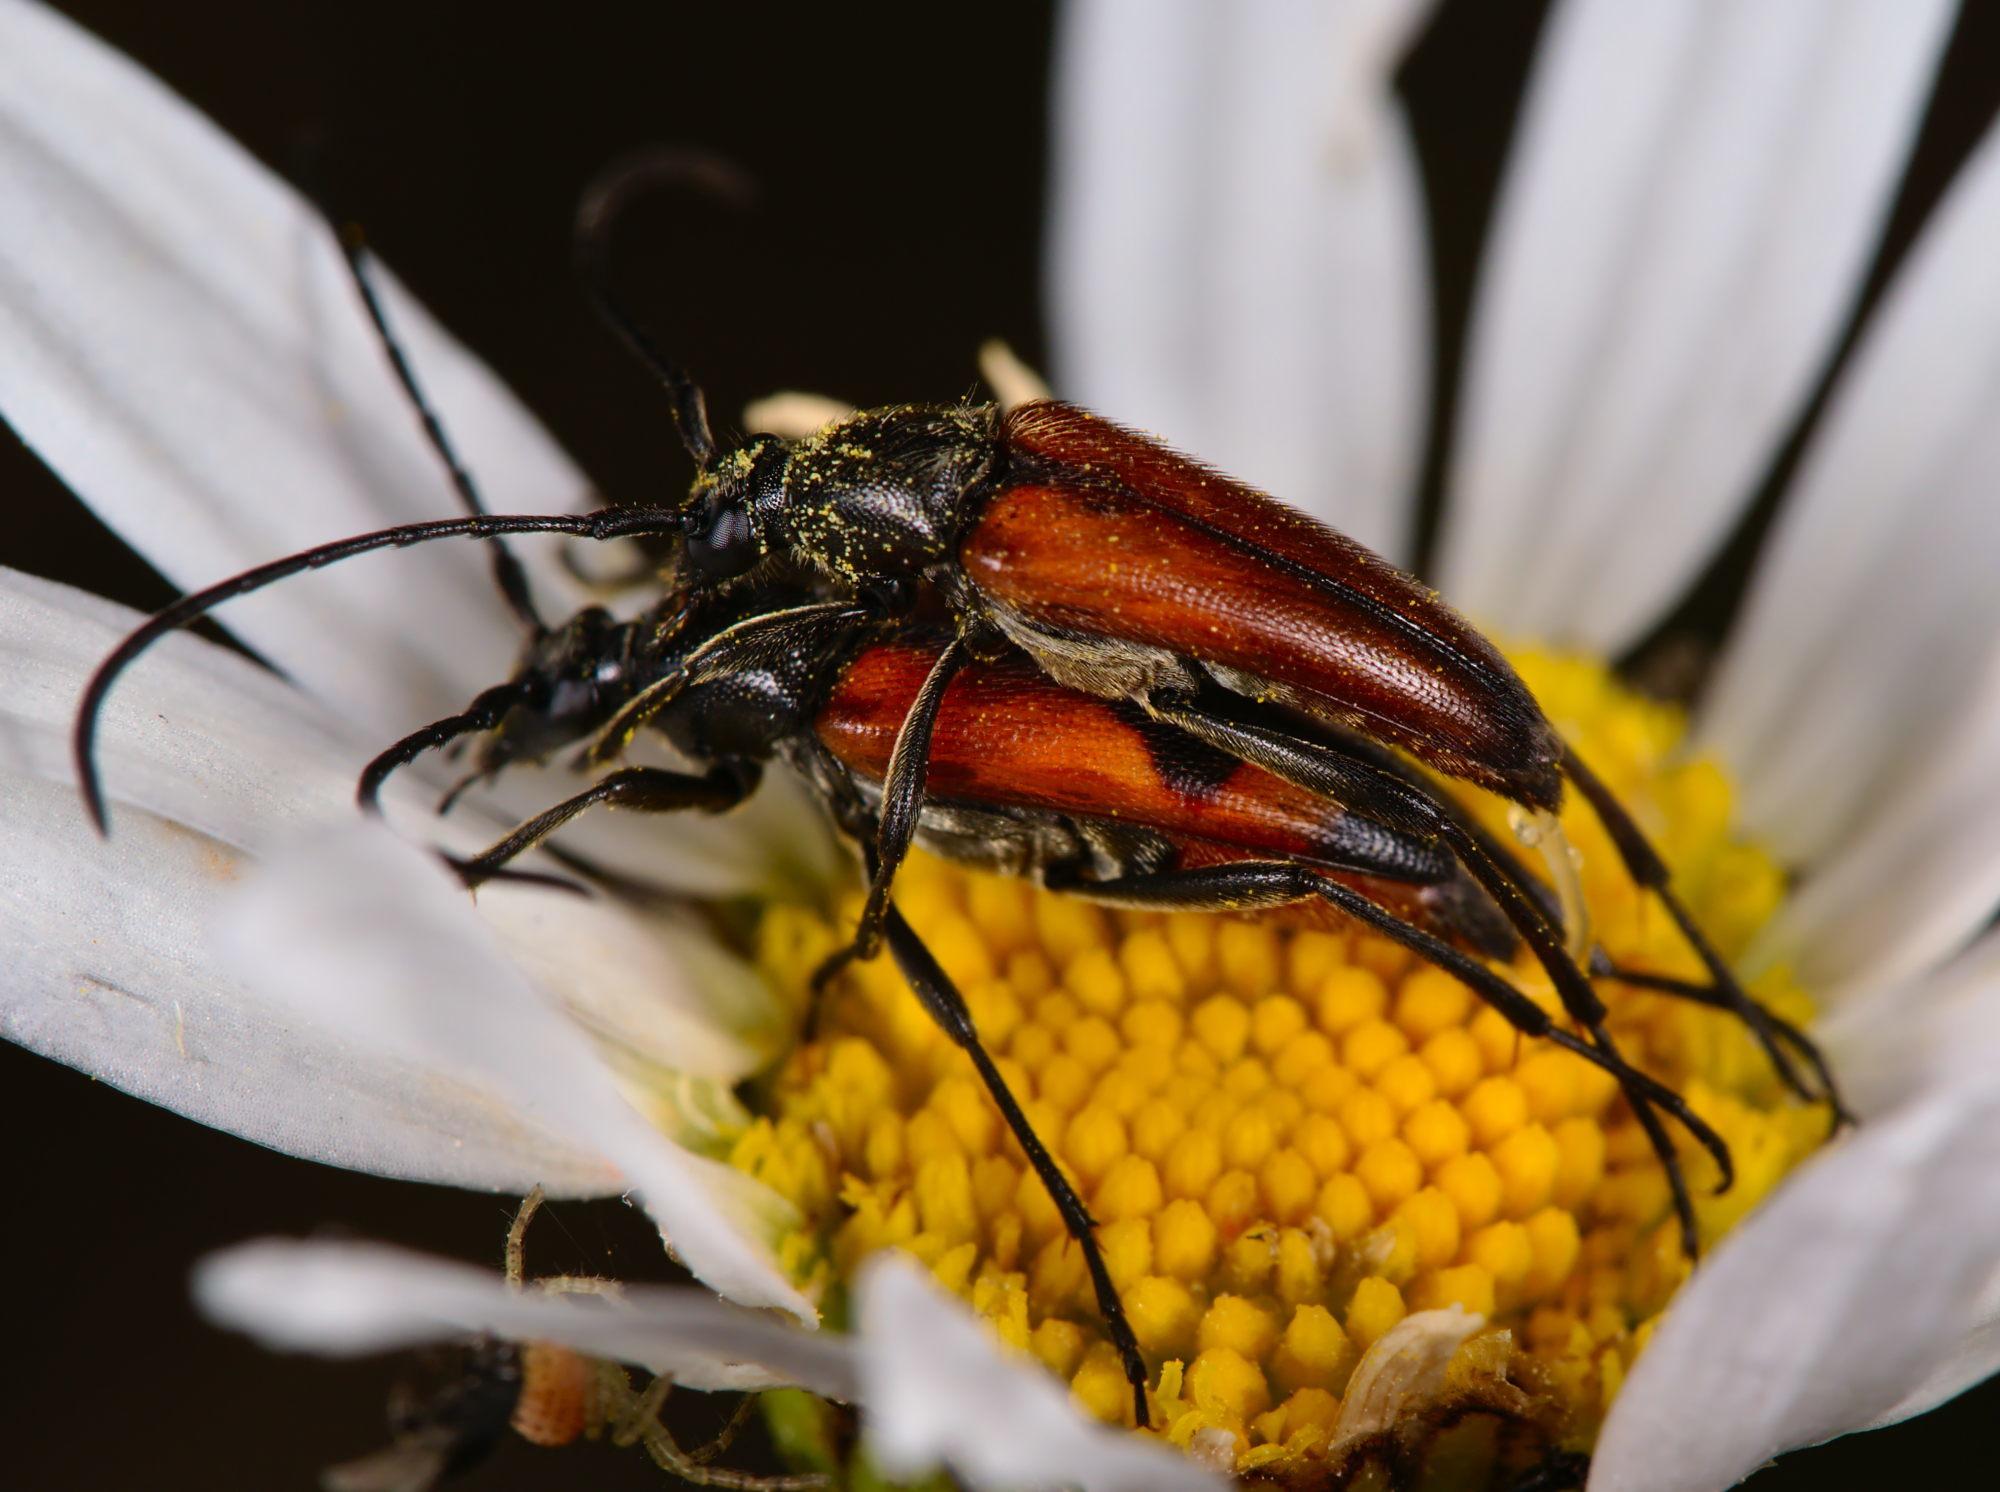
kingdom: Animalia
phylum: Arthropoda
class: Insecta
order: Coleoptera
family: Cerambycidae
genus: Stenurella
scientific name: Stenurella bifasciata
